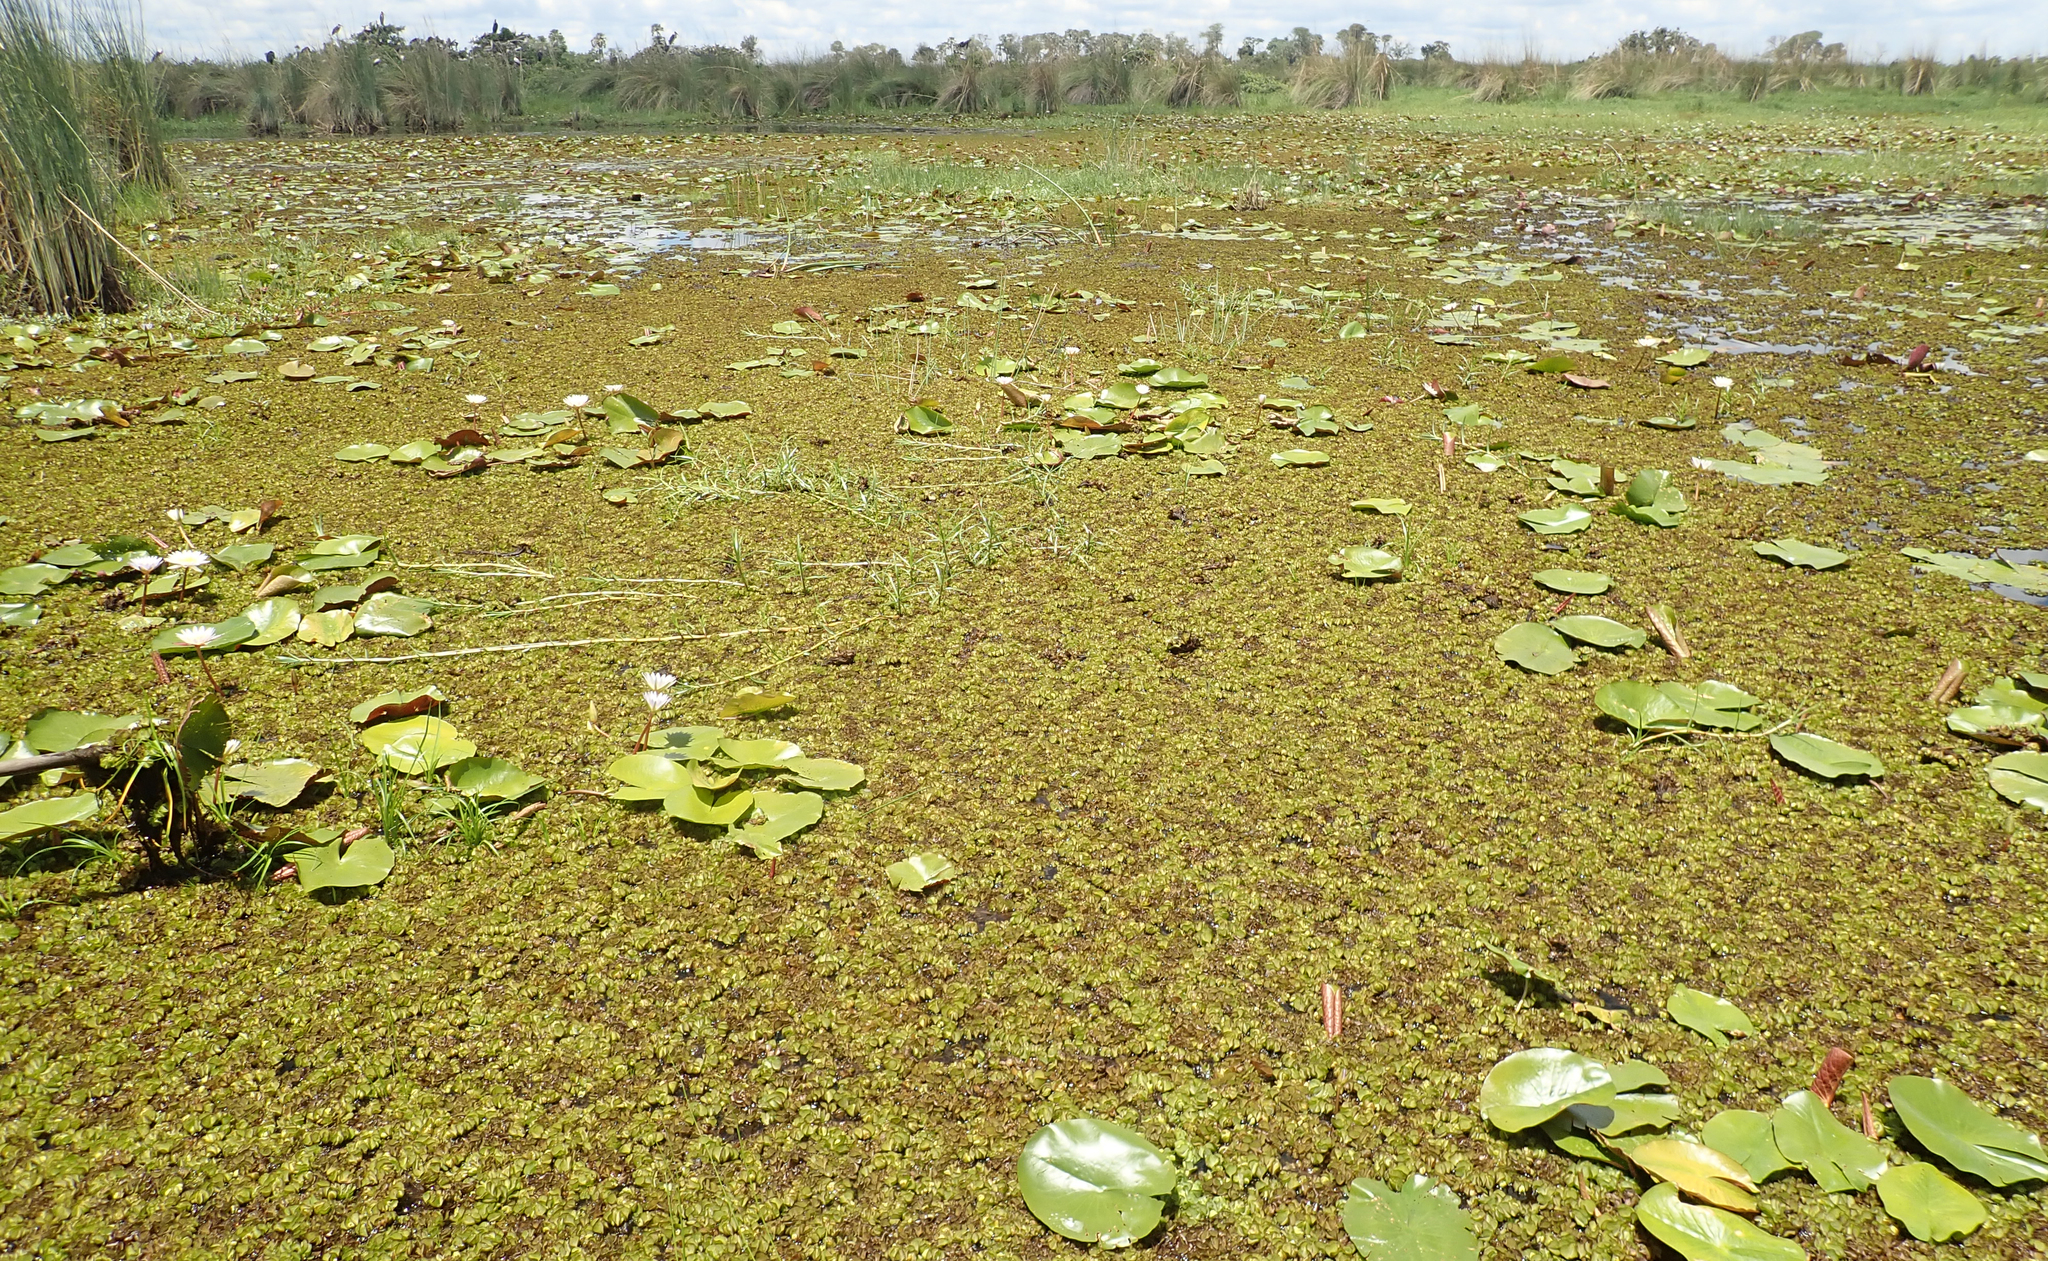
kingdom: Plantae
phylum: Tracheophyta
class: Polypodiopsida
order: Salviniales
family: Salviniaceae
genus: Salvinia
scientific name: Salvinia molesta
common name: Kariba weed
